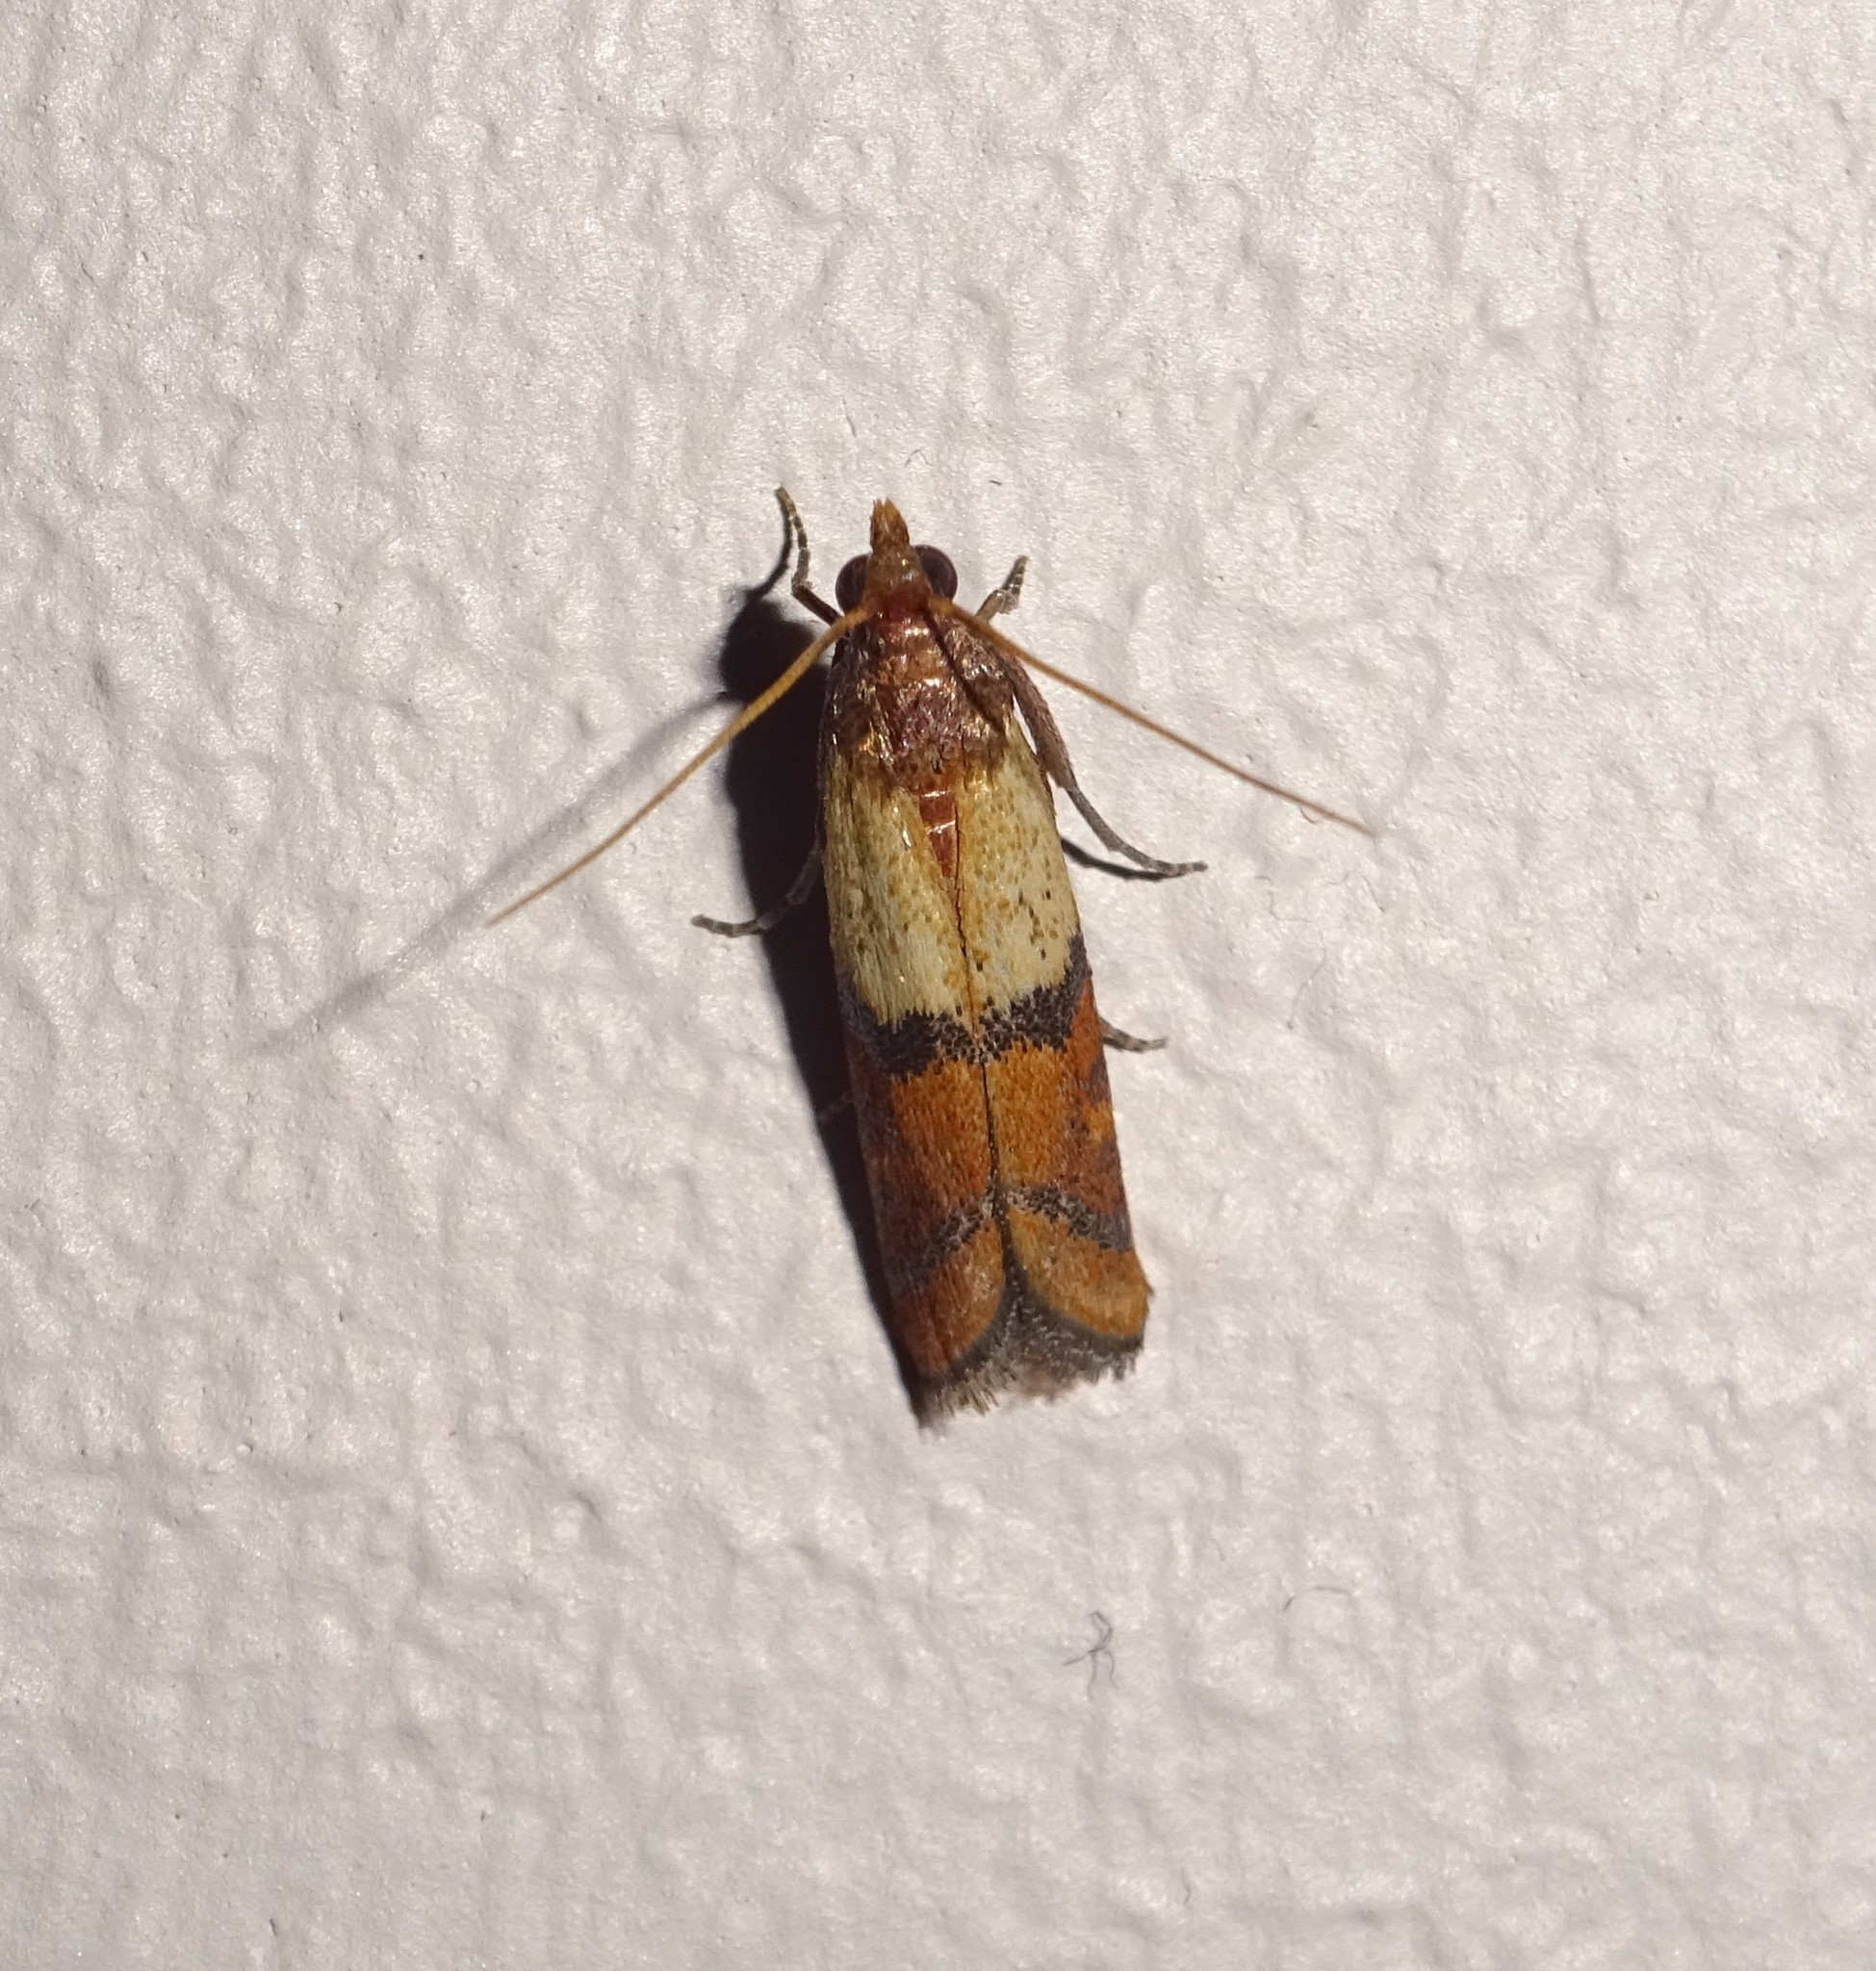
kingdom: Animalia
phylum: Arthropoda
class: Insecta
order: Lepidoptera
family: Pyralidae
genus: Plodia
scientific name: Plodia interpunctella
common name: Indian meal moth
